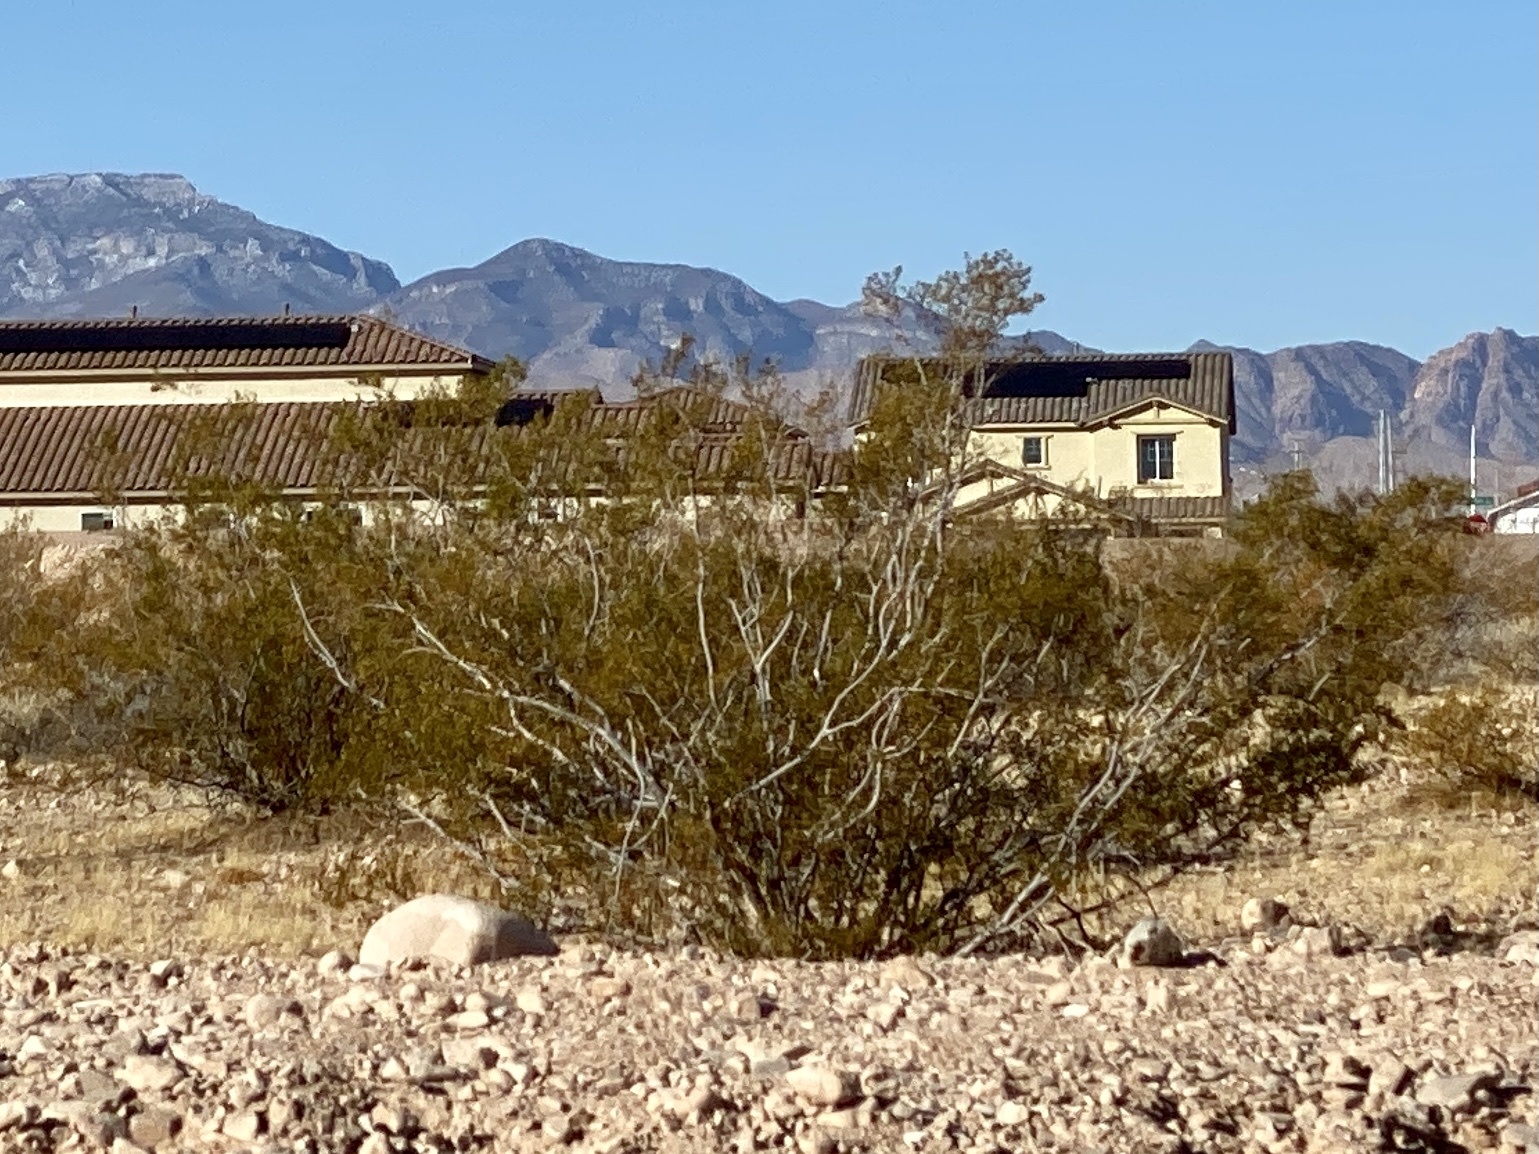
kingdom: Plantae
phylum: Tracheophyta
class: Magnoliopsida
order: Zygophyllales
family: Zygophyllaceae
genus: Larrea
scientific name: Larrea tridentata
